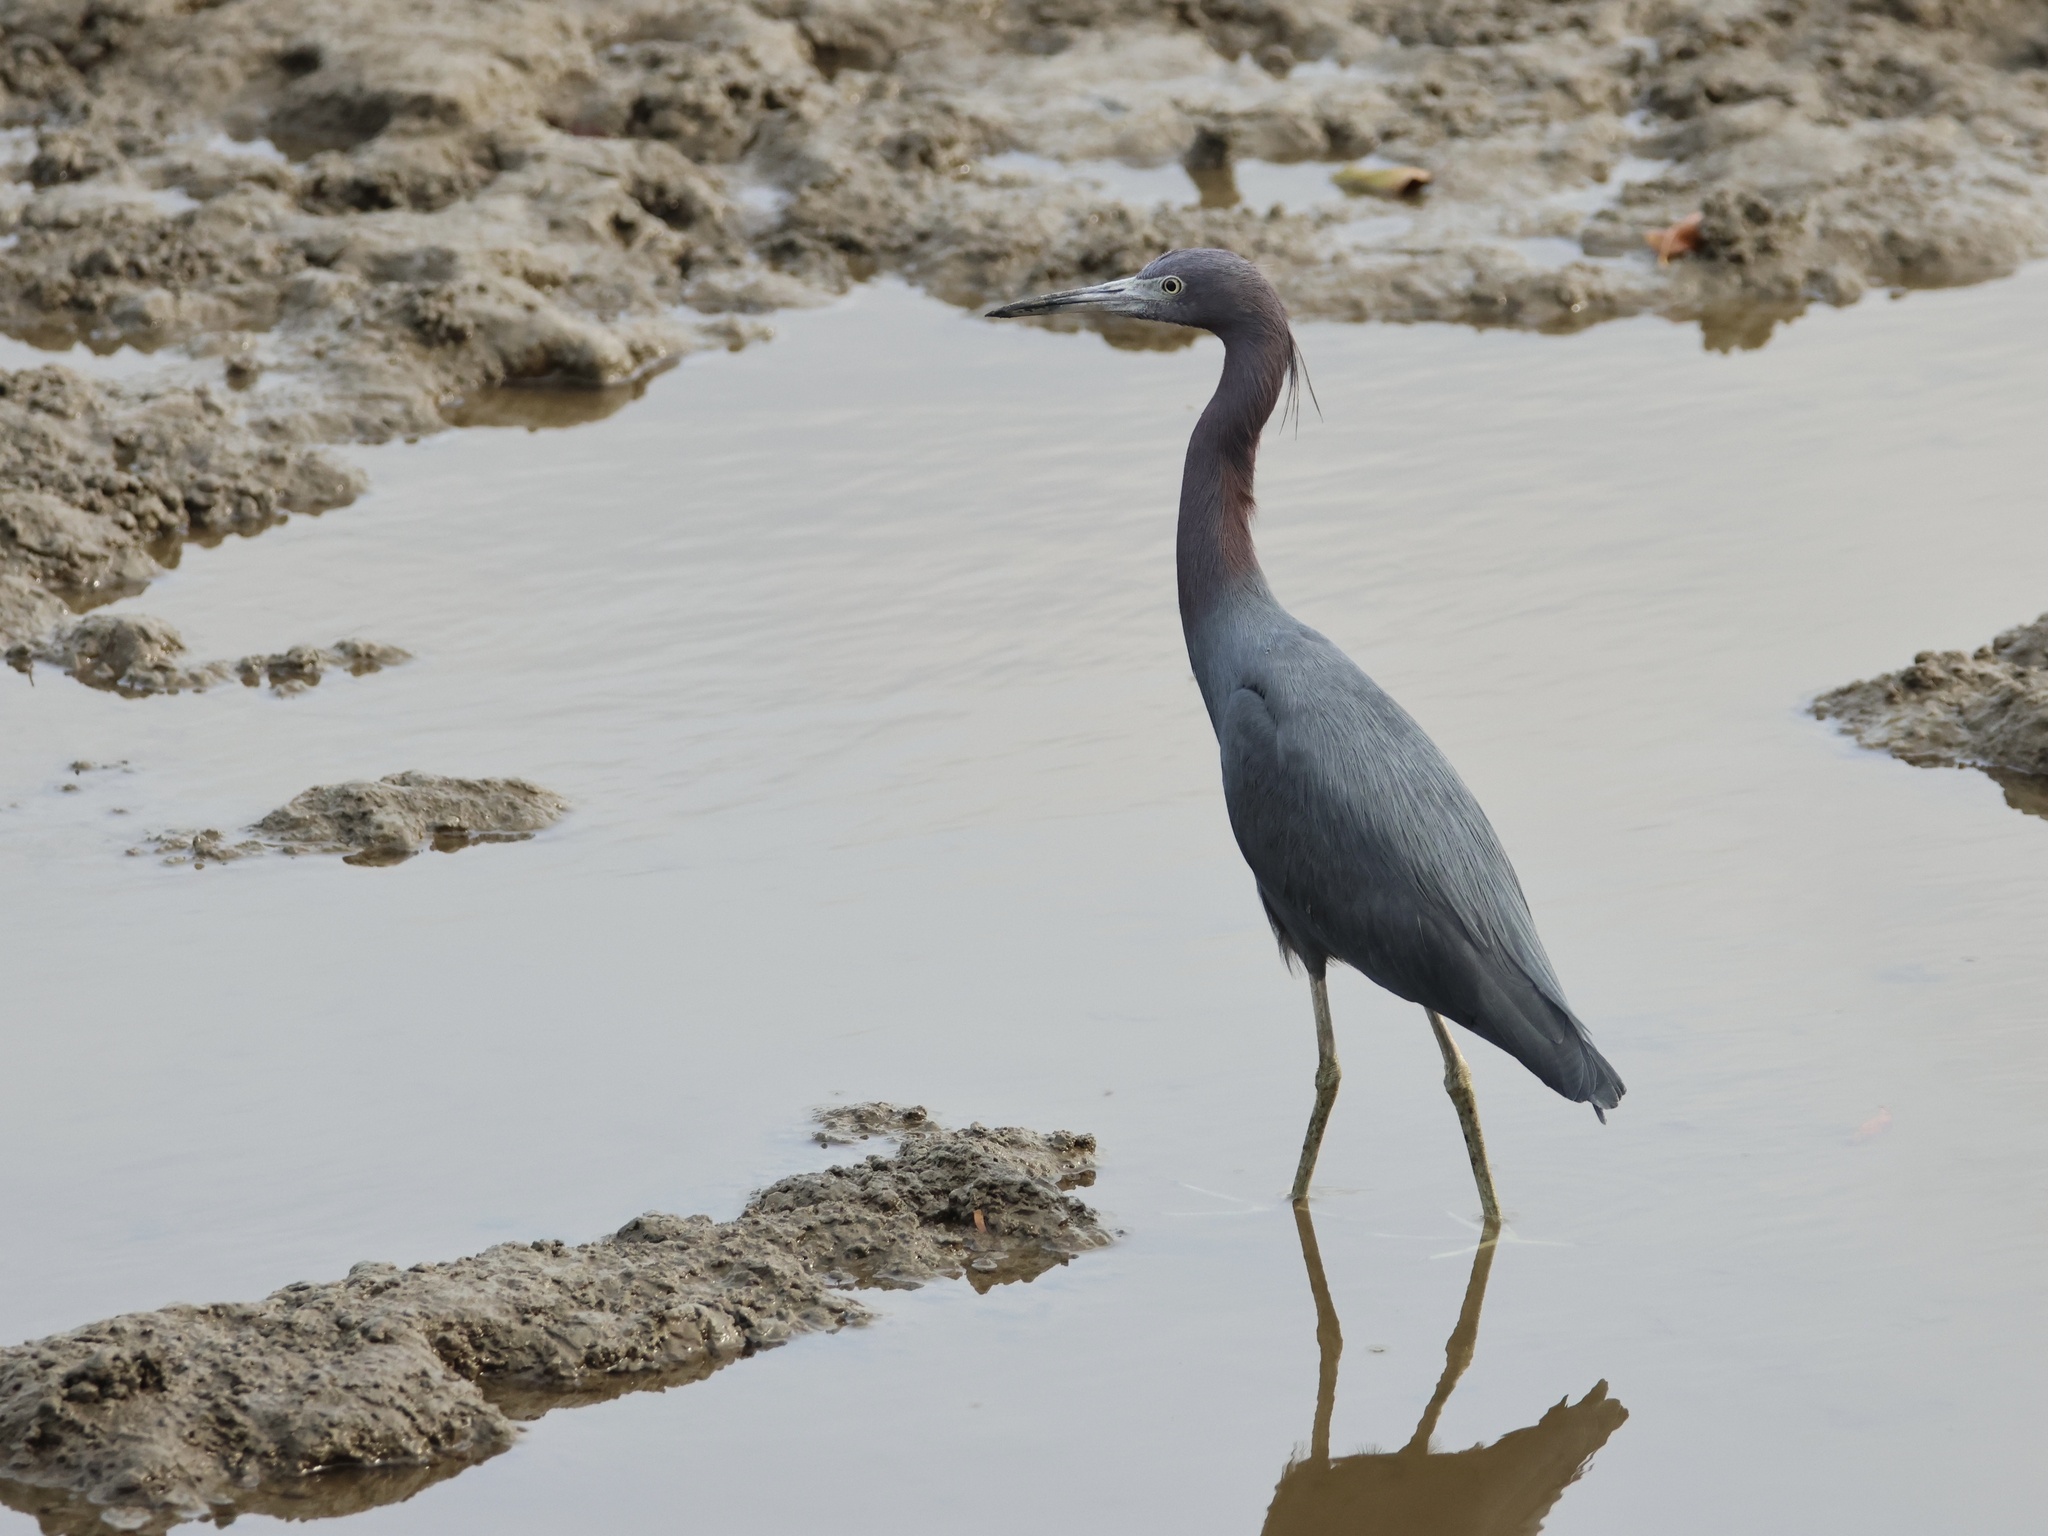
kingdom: Animalia
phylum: Chordata
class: Aves
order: Pelecaniformes
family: Ardeidae
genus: Egretta
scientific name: Egretta caerulea
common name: Little blue heron
